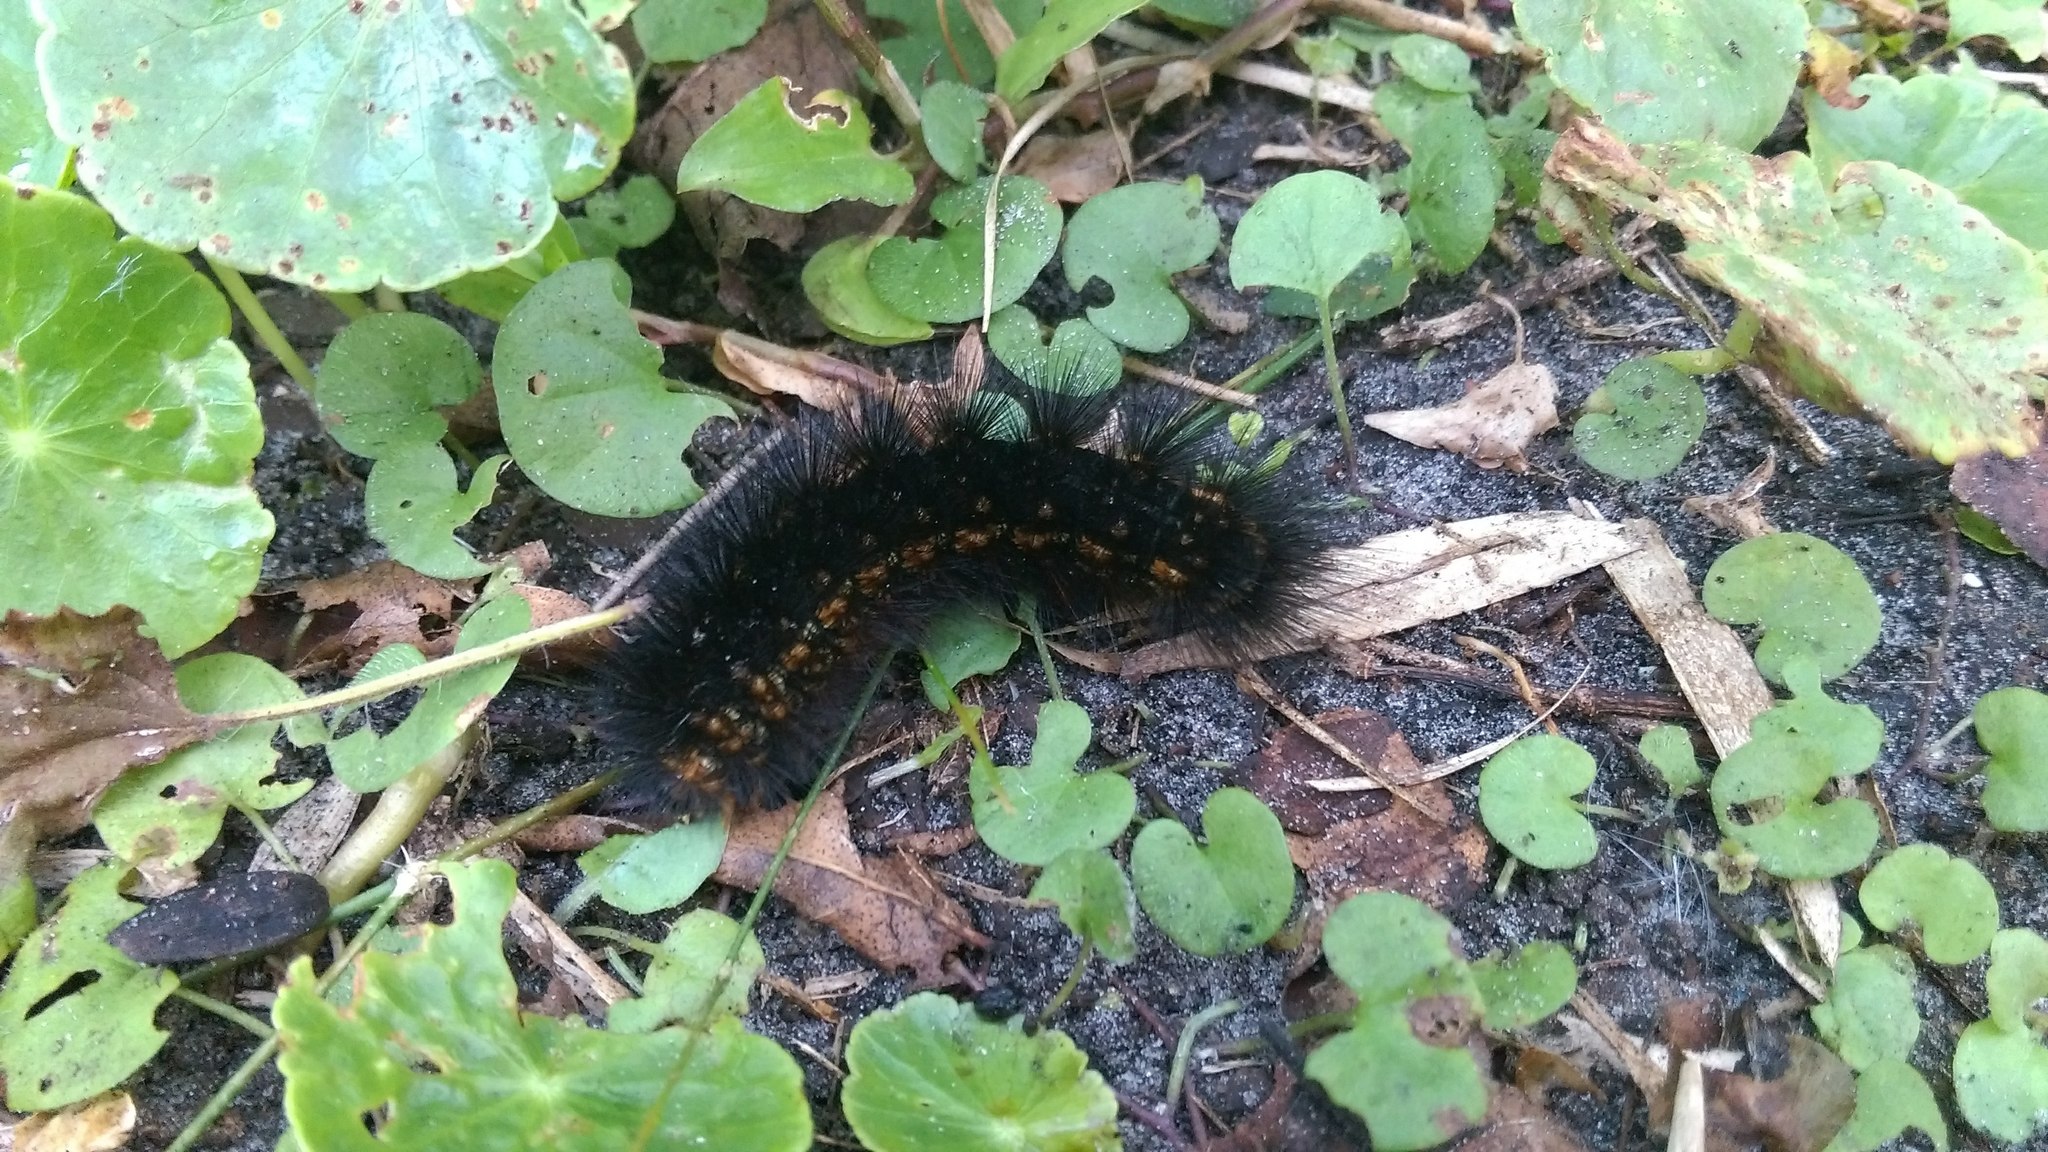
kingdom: Animalia
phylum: Arthropoda
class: Insecta
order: Lepidoptera
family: Erebidae
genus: Estigmene
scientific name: Estigmene acrea
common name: Salt marsh moth
